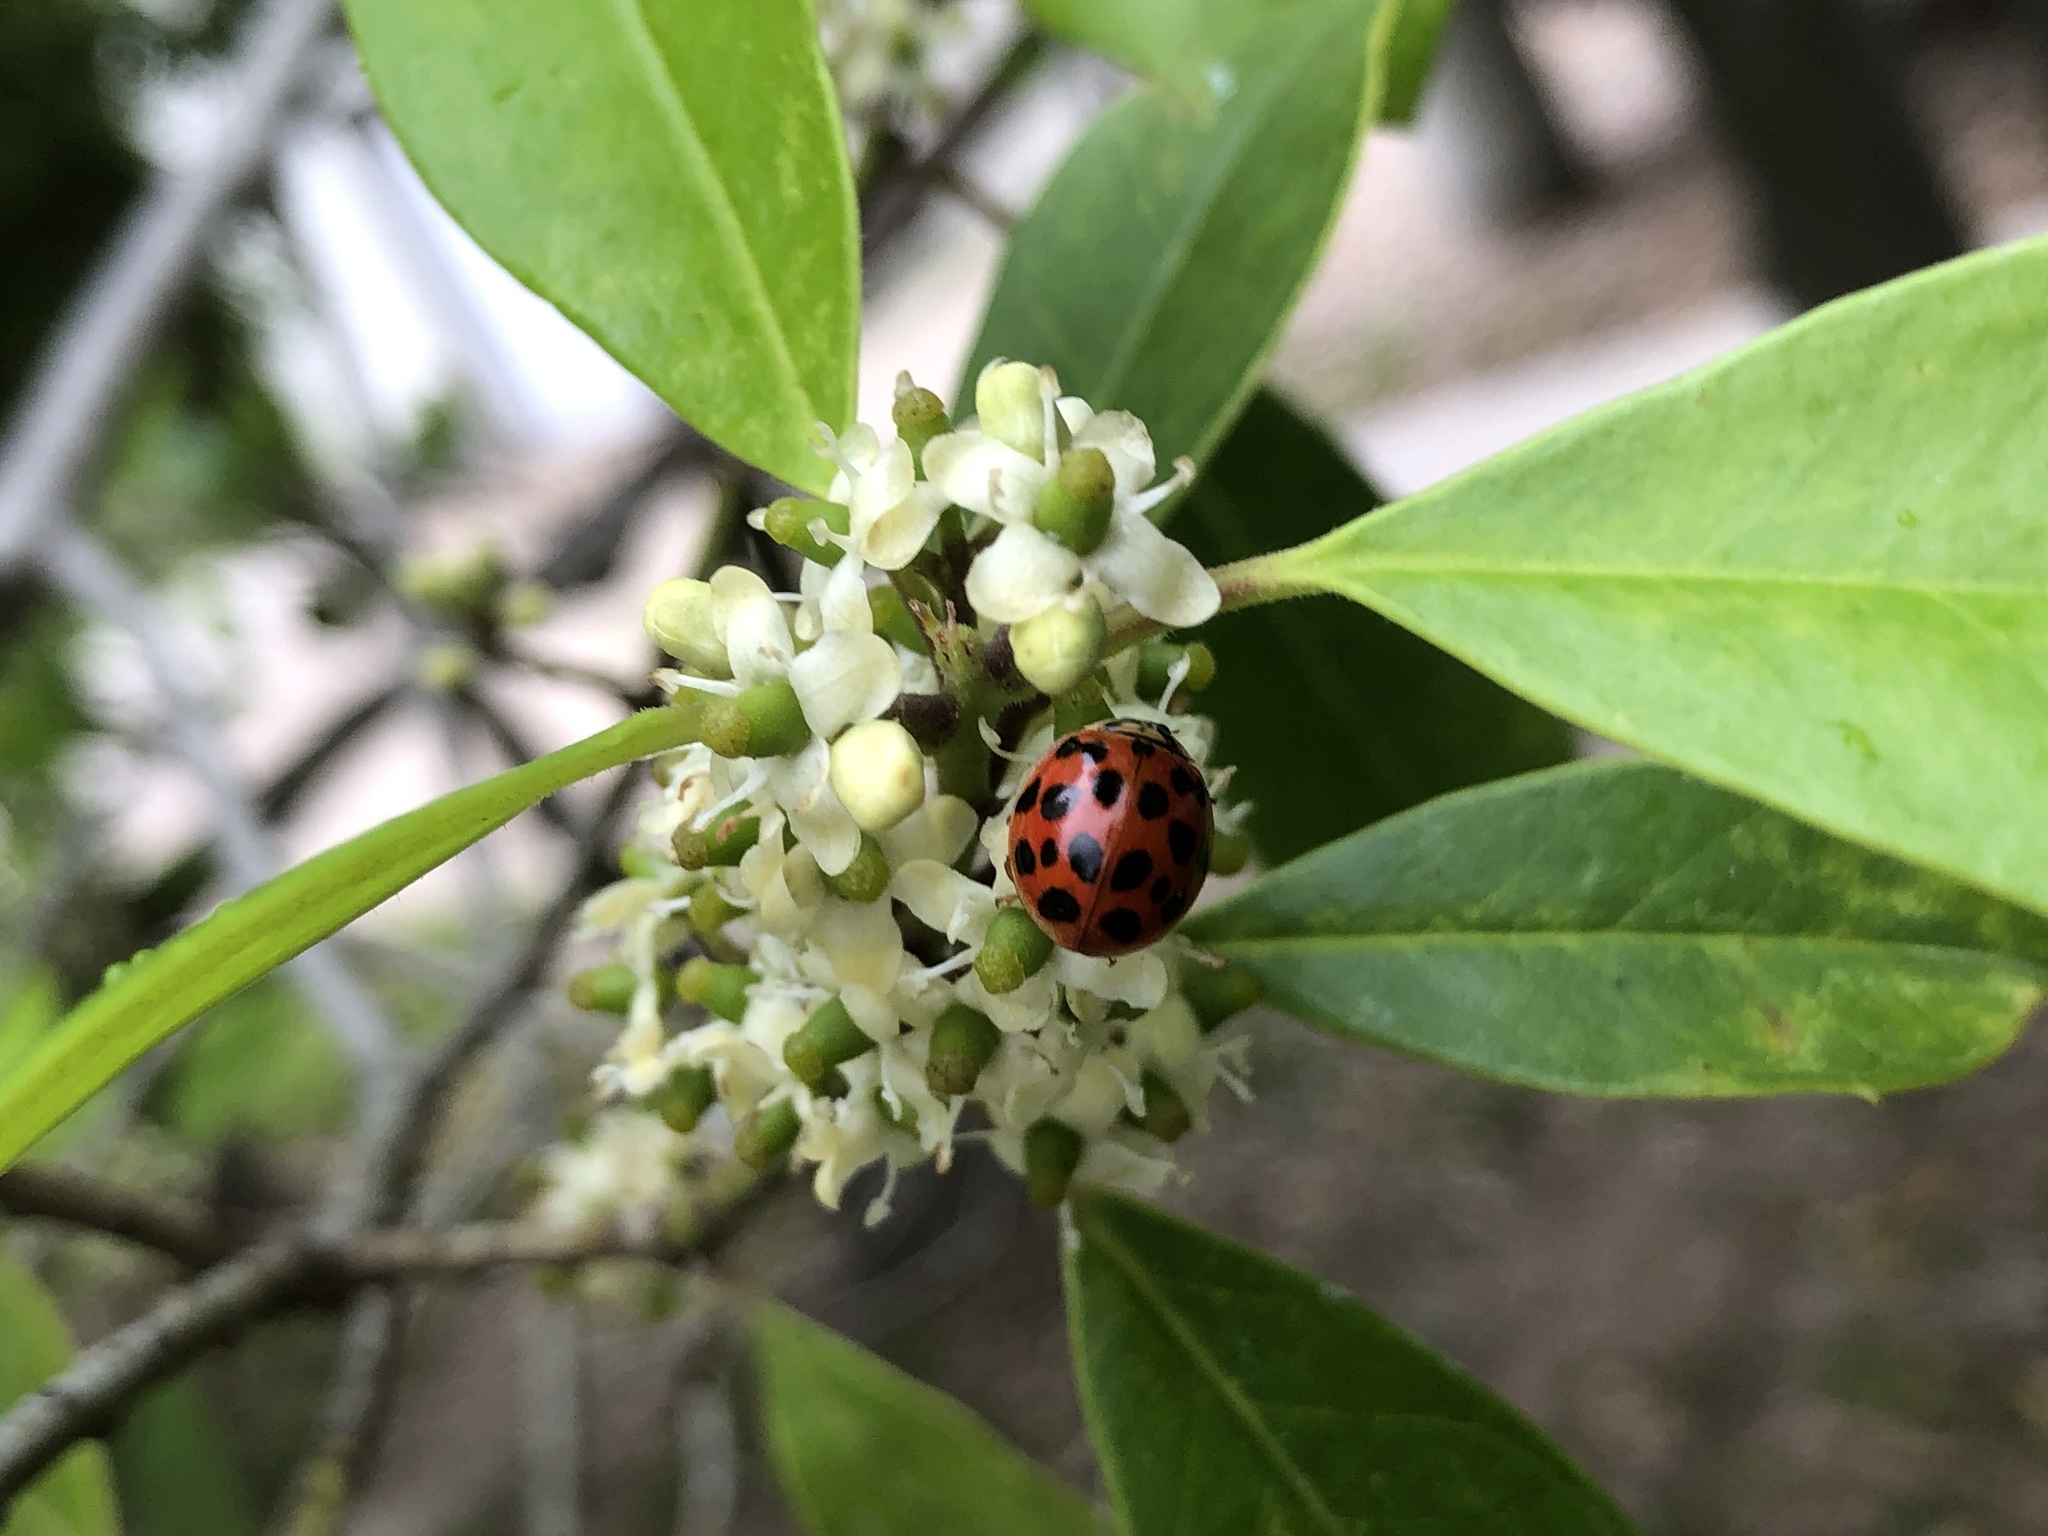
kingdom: Animalia
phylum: Arthropoda
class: Insecta
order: Coleoptera
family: Coccinellidae
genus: Harmonia
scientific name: Harmonia axyridis
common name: Harlequin ladybird
